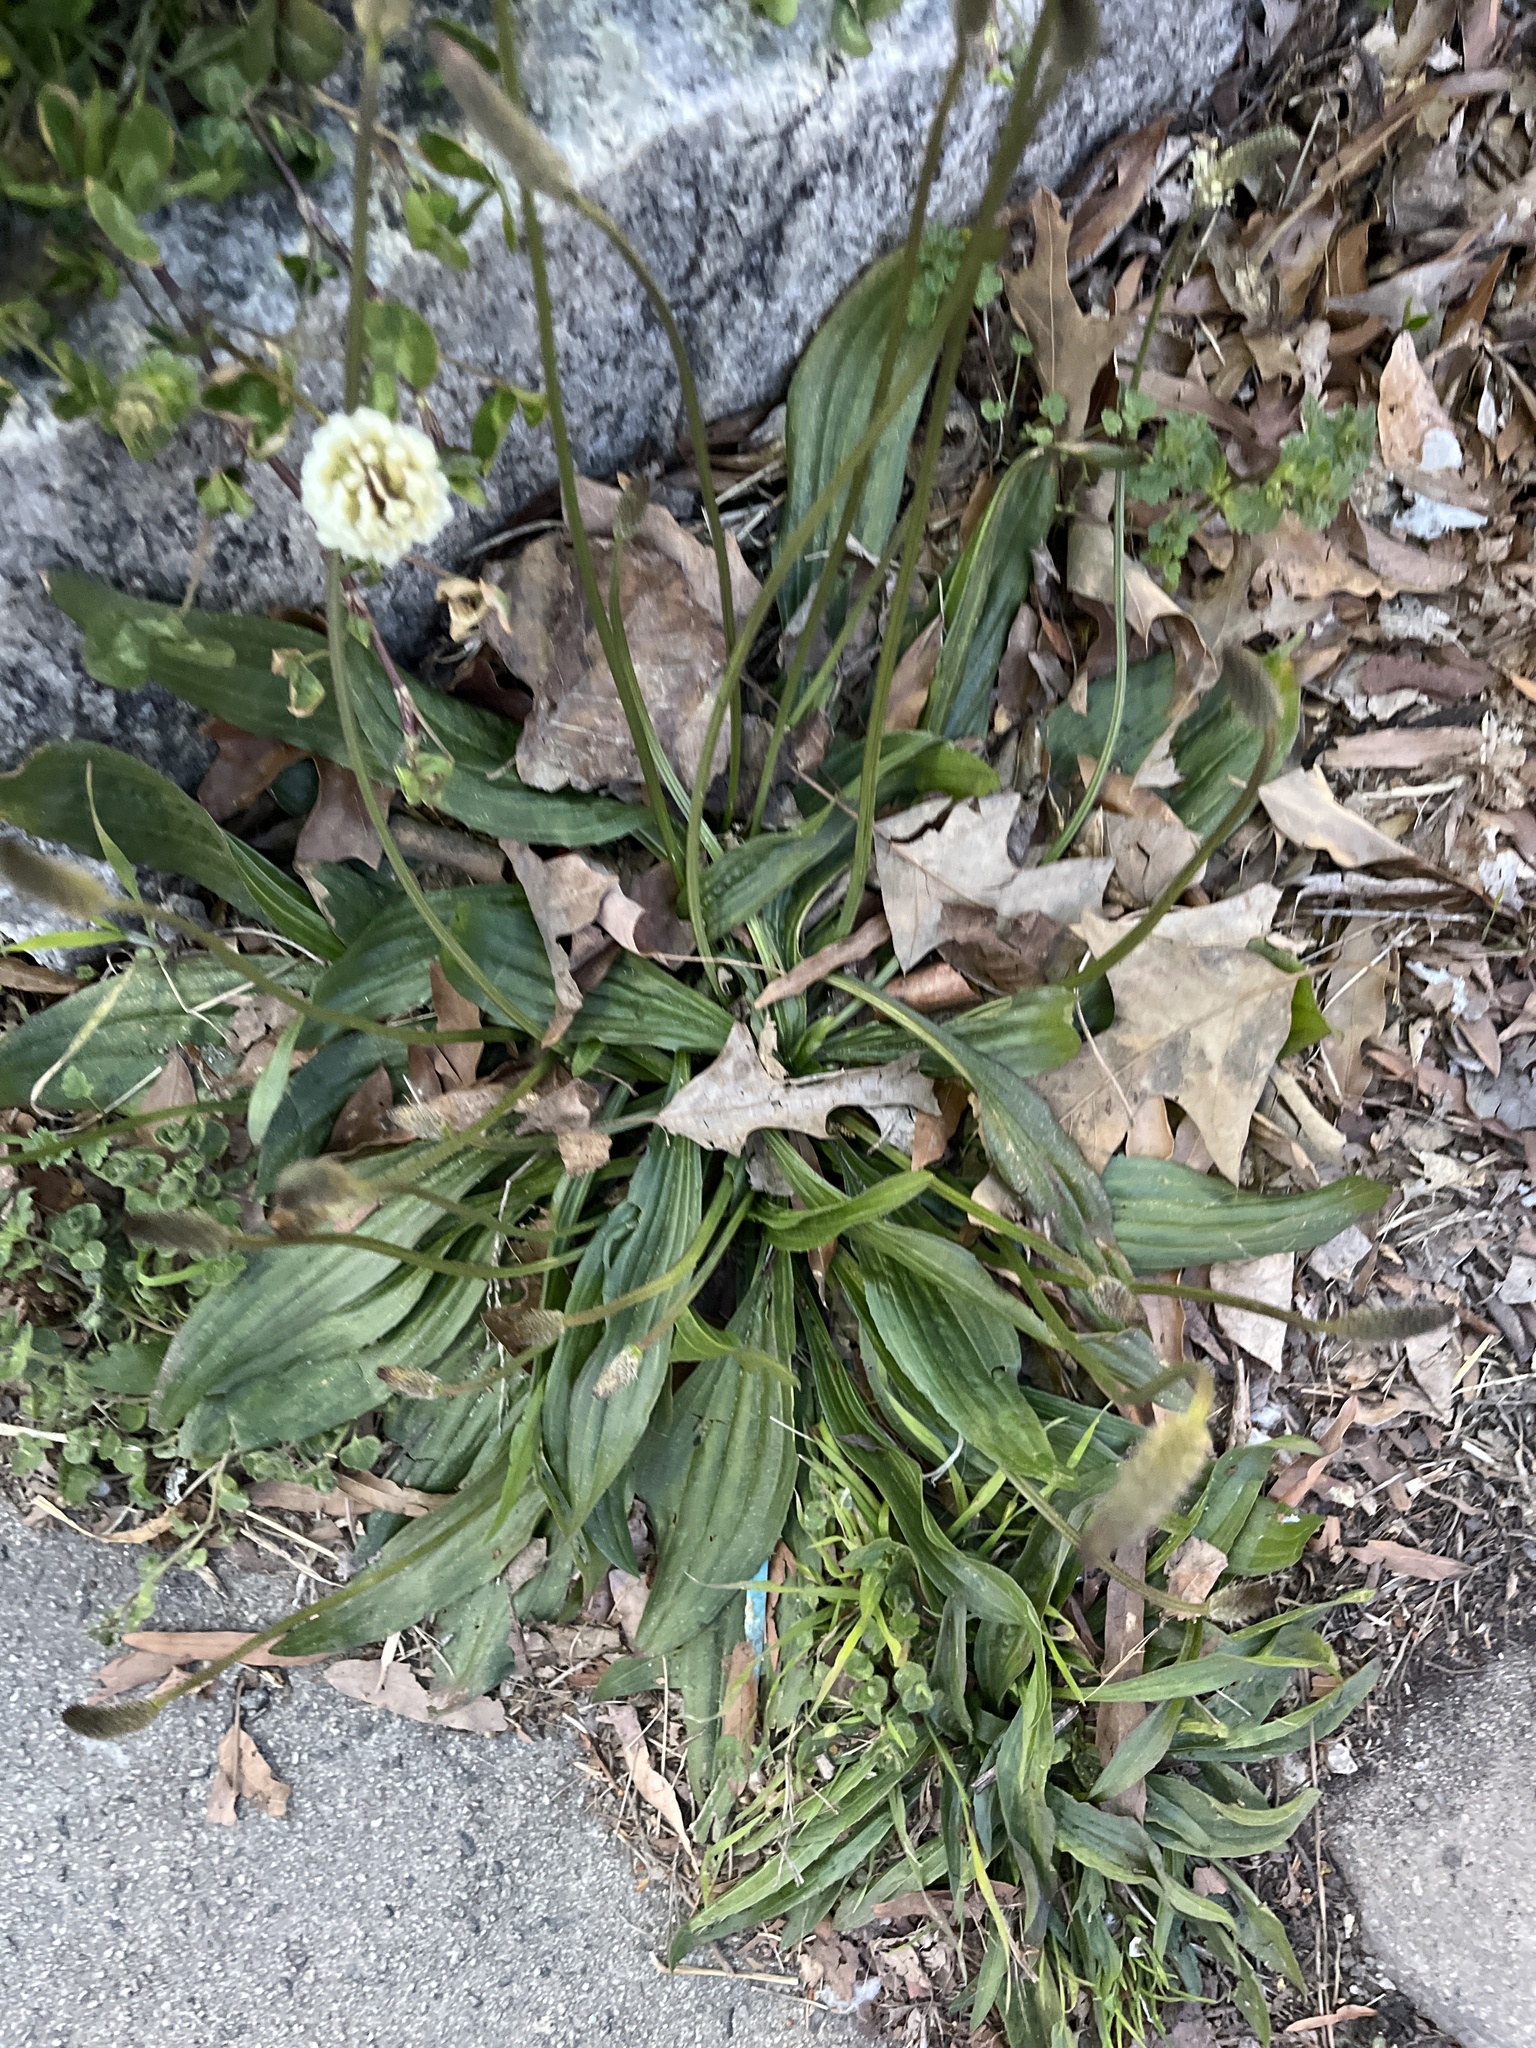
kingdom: Plantae
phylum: Tracheophyta
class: Magnoliopsida
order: Lamiales
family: Plantaginaceae
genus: Plantago
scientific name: Plantago lanceolata
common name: Ribwort plantain
